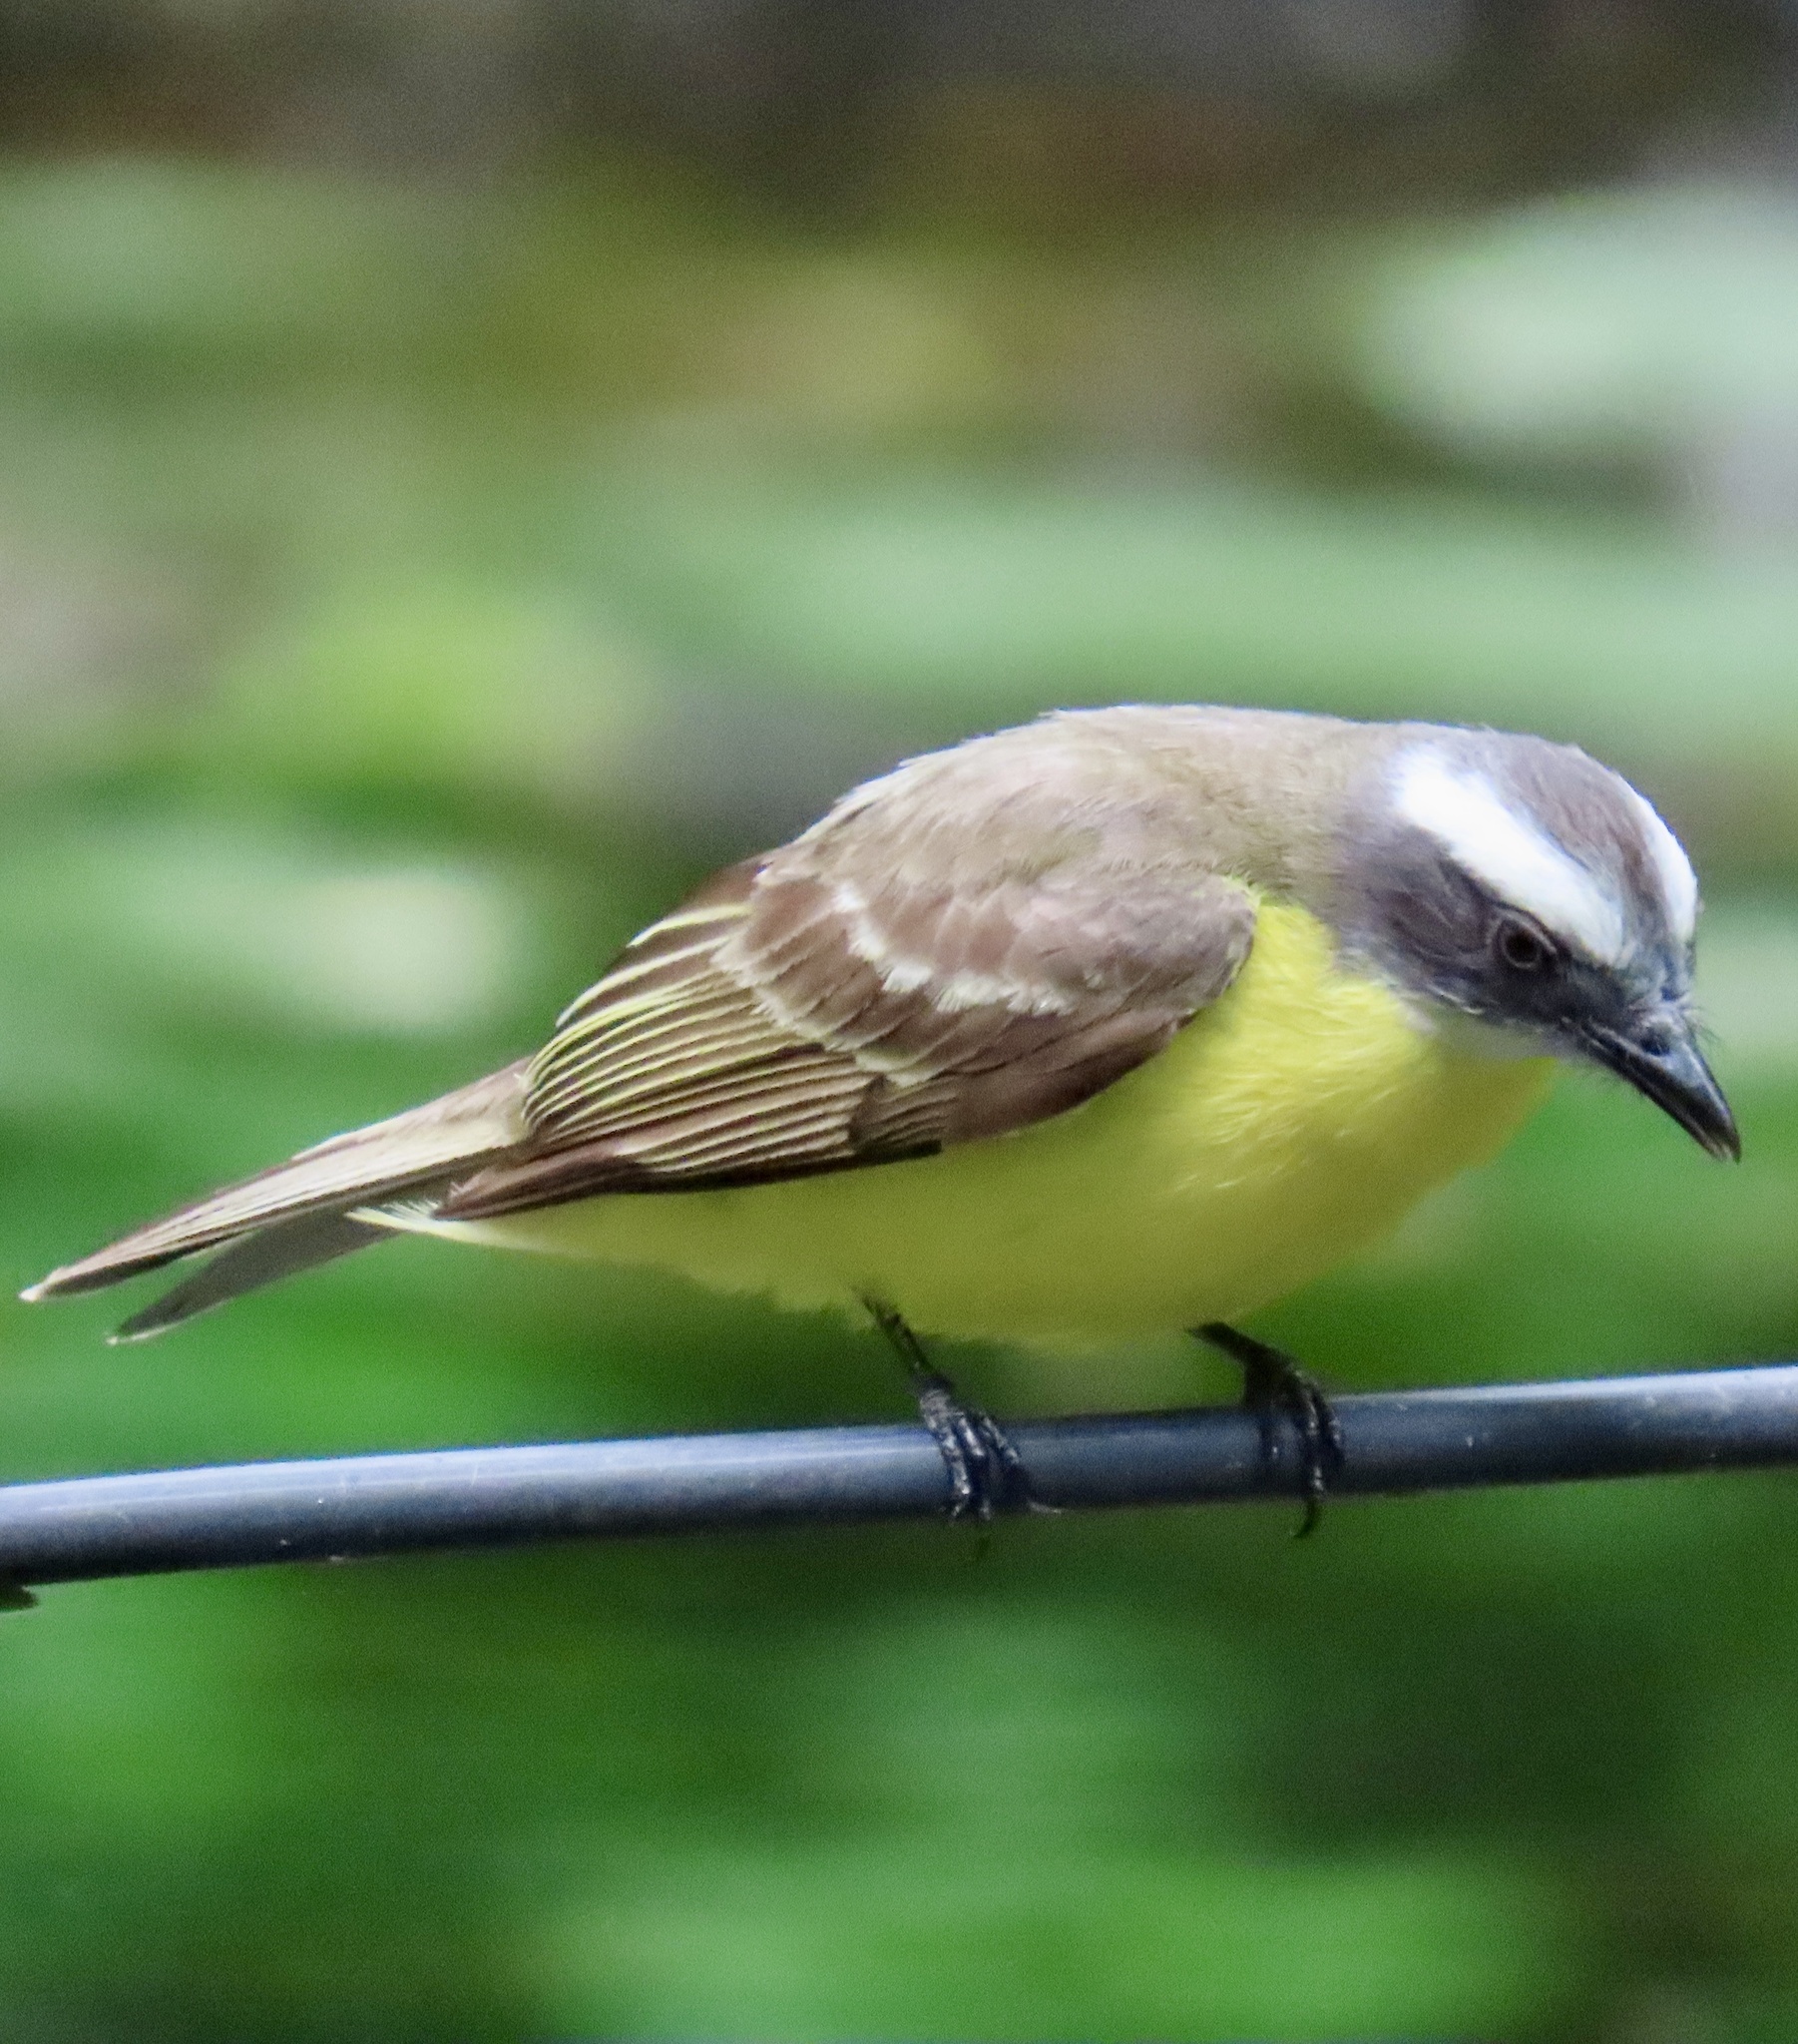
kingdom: Animalia
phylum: Chordata
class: Aves
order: Passeriformes
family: Tyrannidae
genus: Myiozetetes
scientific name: Myiozetetes similis
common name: Social flycatcher
